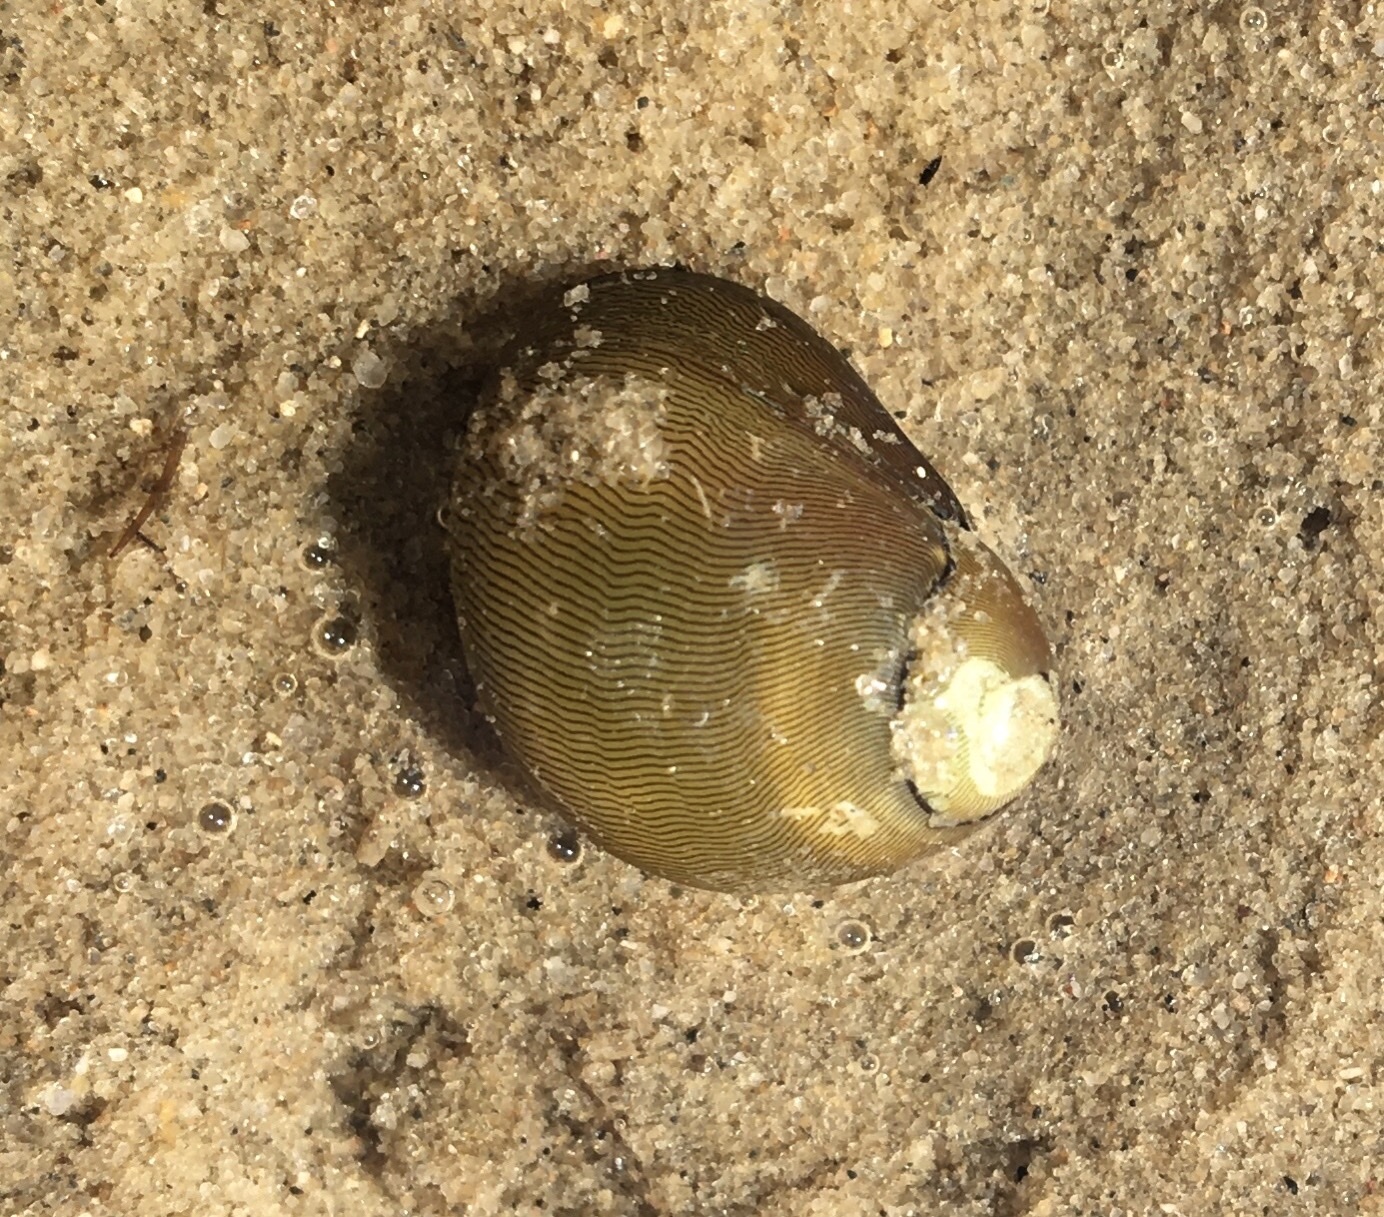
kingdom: Animalia
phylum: Mollusca
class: Gastropoda
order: Cycloneritida
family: Neritidae
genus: Vitta
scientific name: Vitta usnea
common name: Olive nerite
